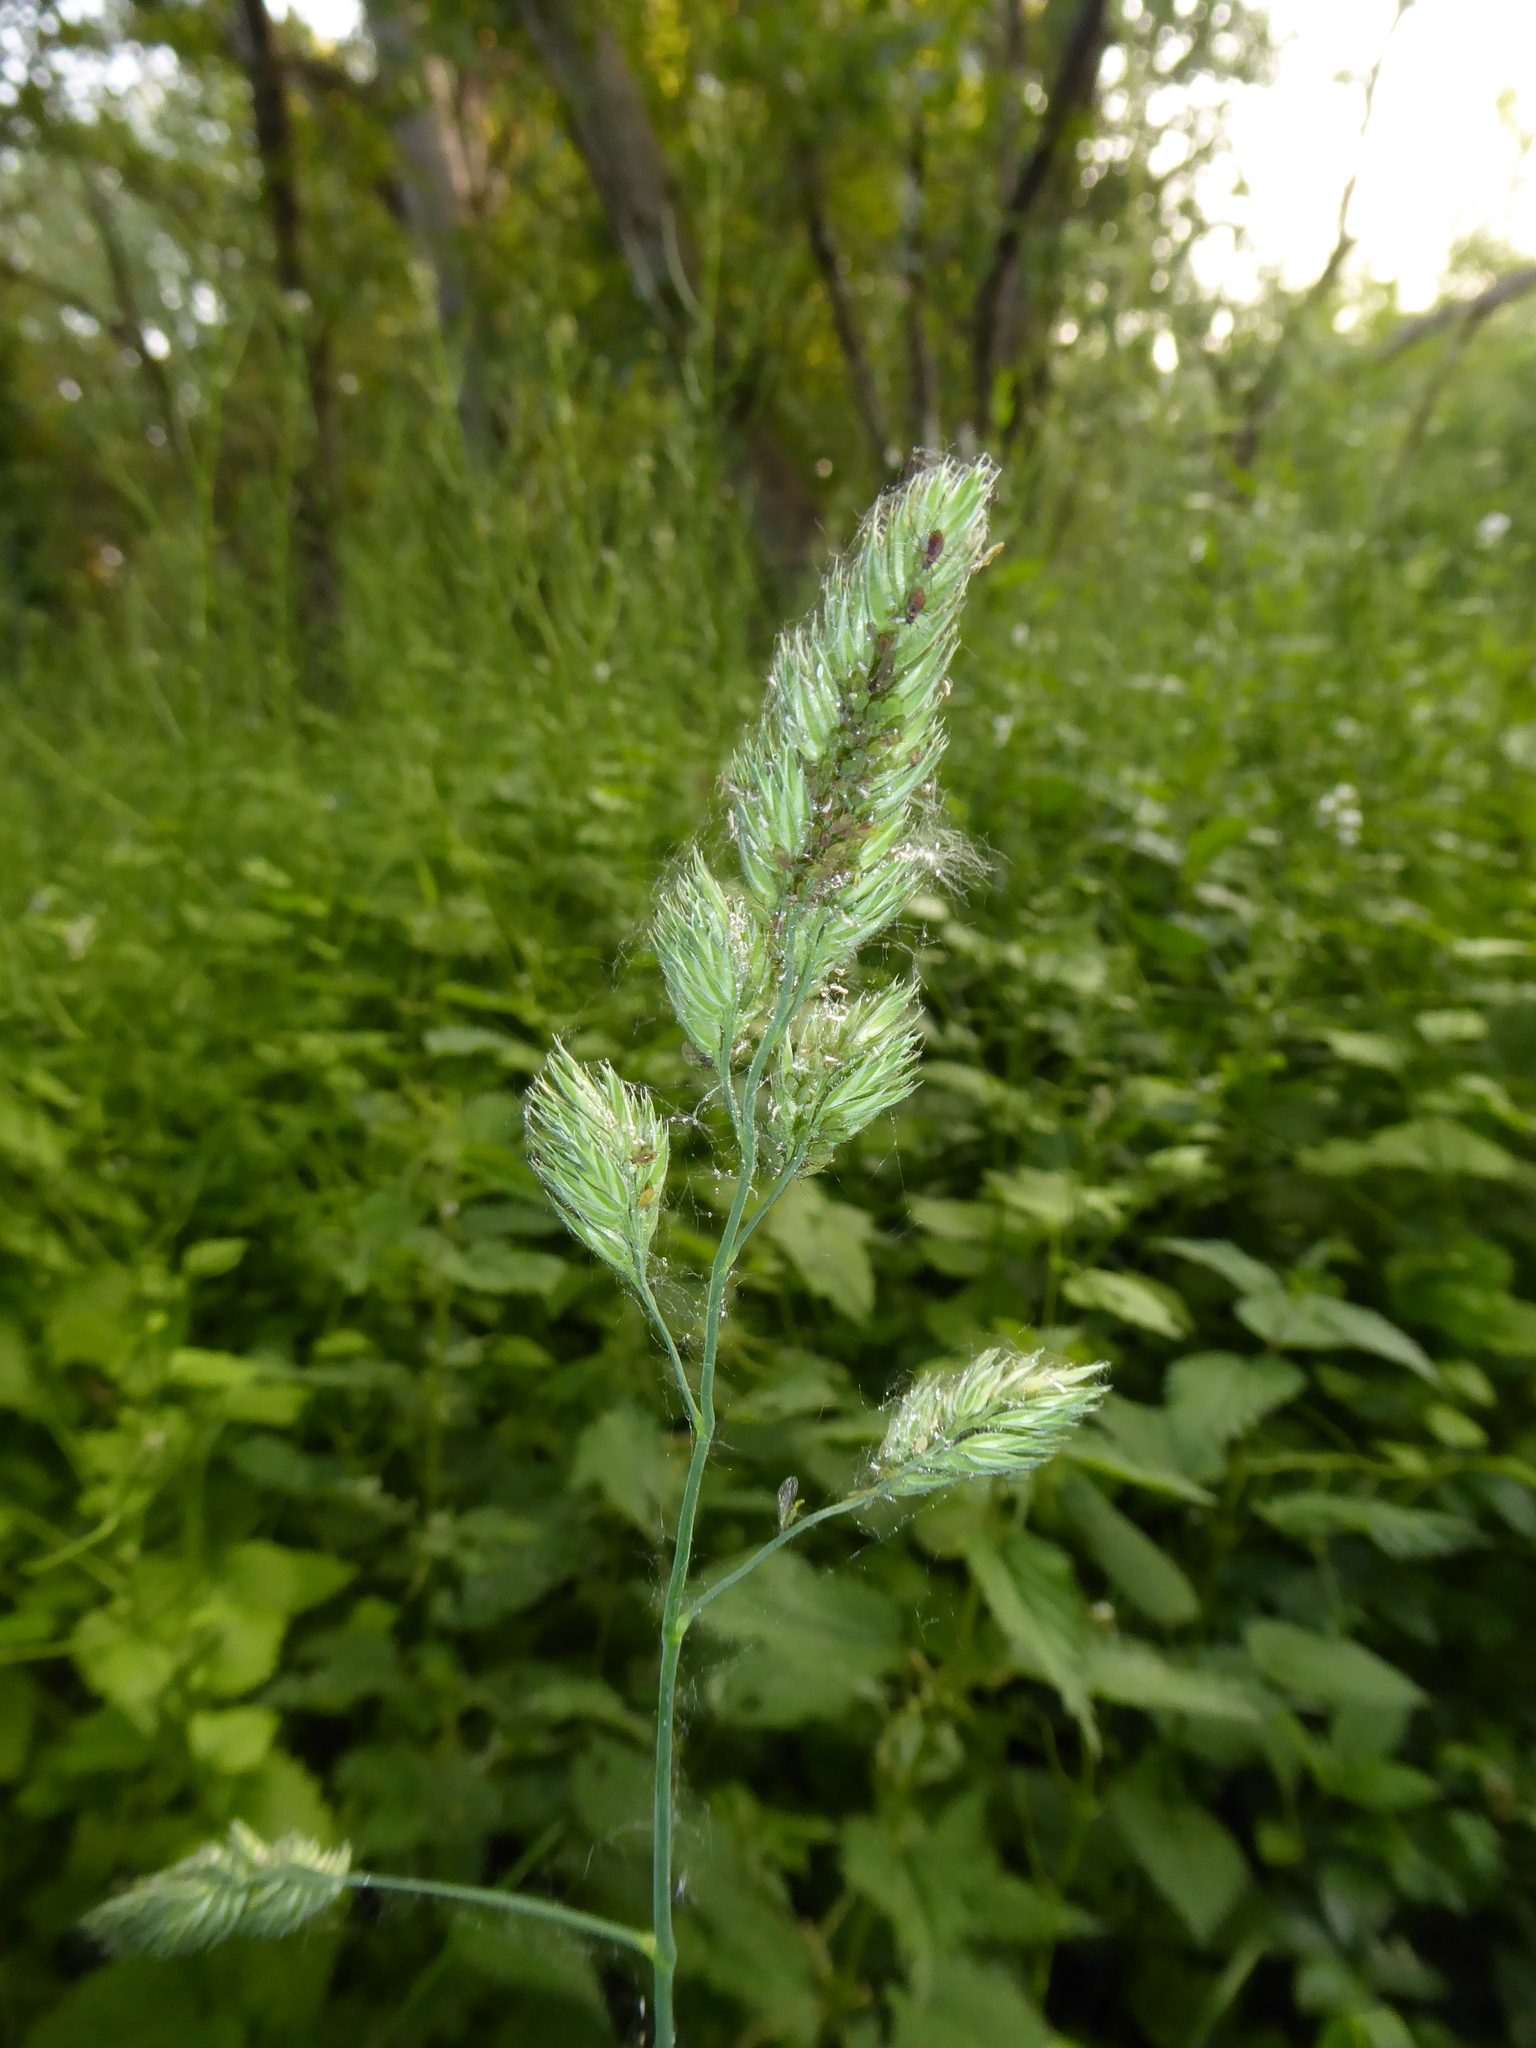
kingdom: Plantae
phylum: Tracheophyta
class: Liliopsida
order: Poales
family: Poaceae
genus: Dactylis
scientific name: Dactylis glomerata
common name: Orchardgrass
